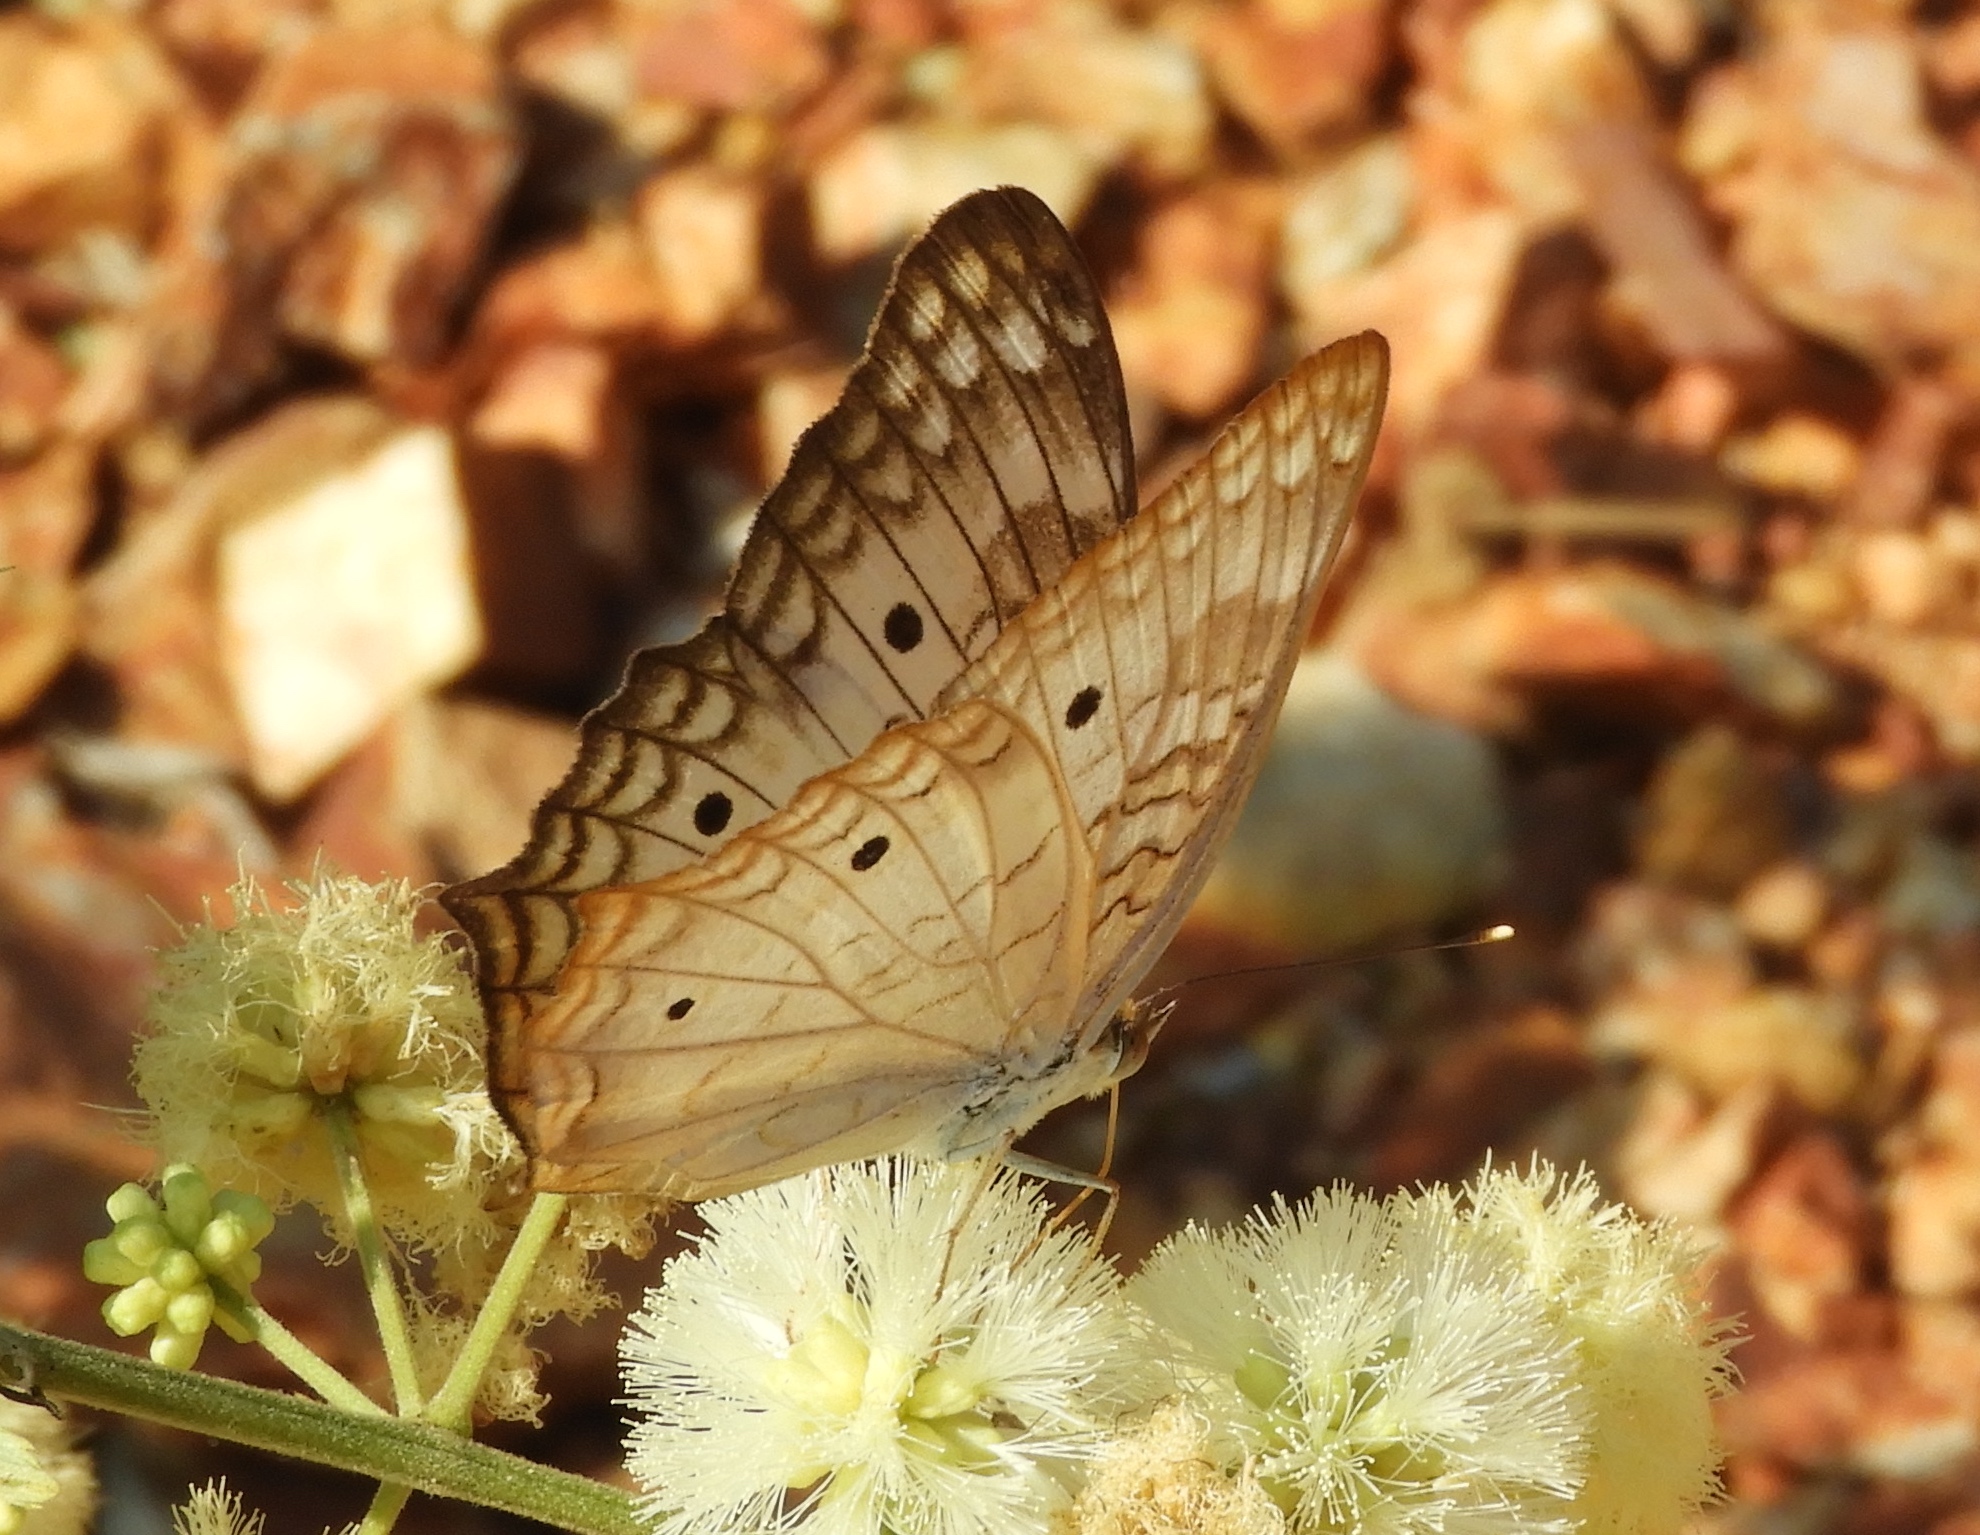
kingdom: Animalia
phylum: Arthropoda
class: Insecta
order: Lepidoptera
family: Nymphalidae
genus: Anartia
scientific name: Anartia jatrophae
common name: White peacock
